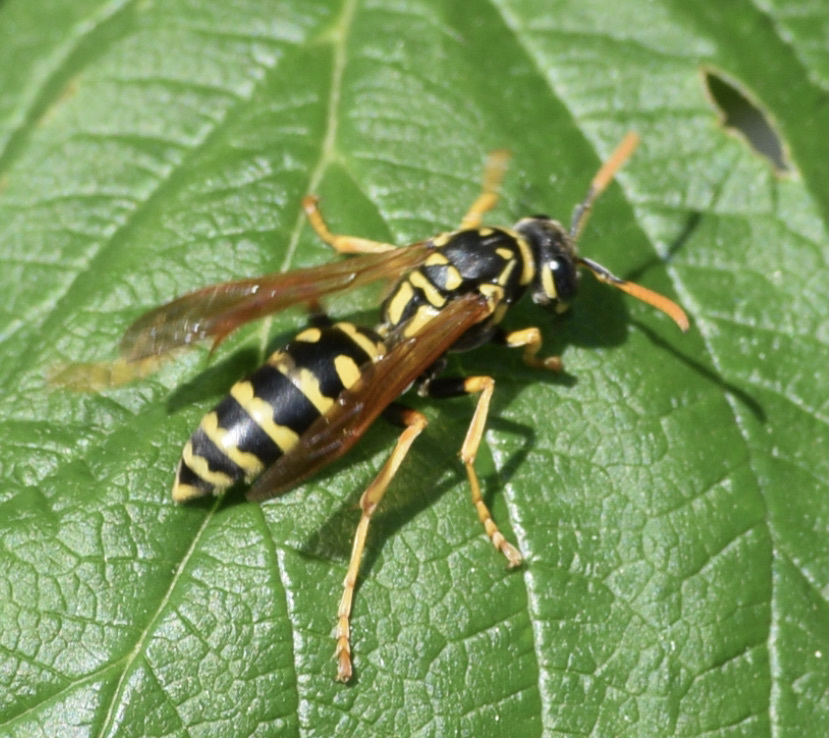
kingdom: Animalia
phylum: Arthropoda
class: Insecta
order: Hymenoptera
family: Eumenidae
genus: Polistes
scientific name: Polistes dominula
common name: Paper wasp
